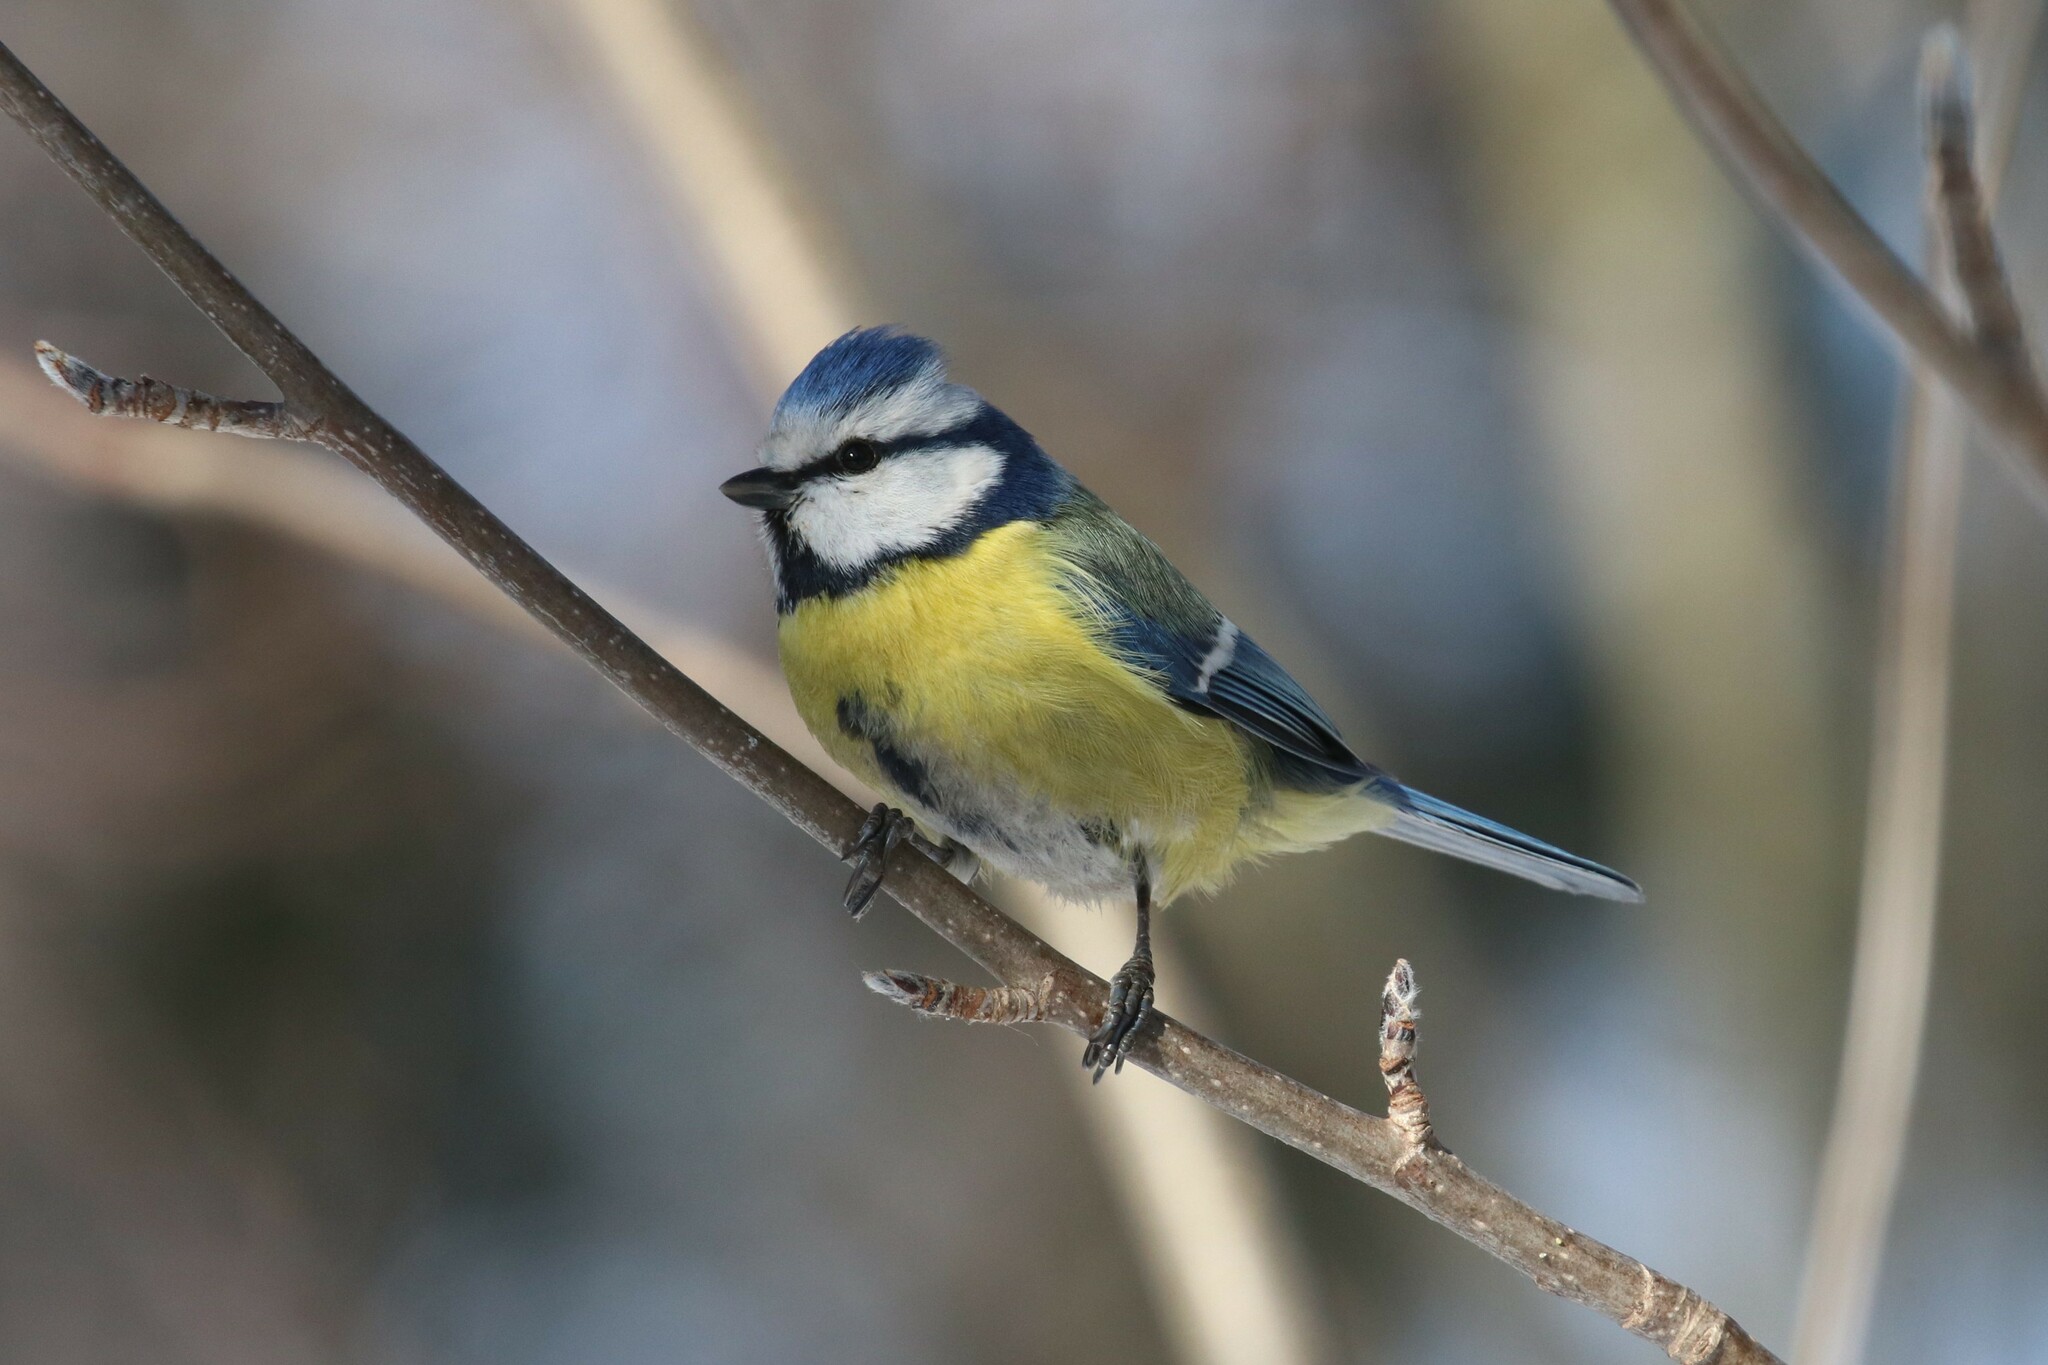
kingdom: Animalia
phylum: Chordata
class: Aves
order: Passeriformes
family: Paridae
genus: Cyanistes
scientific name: Cyanistes caeruleus
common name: Eurasian blue tit
